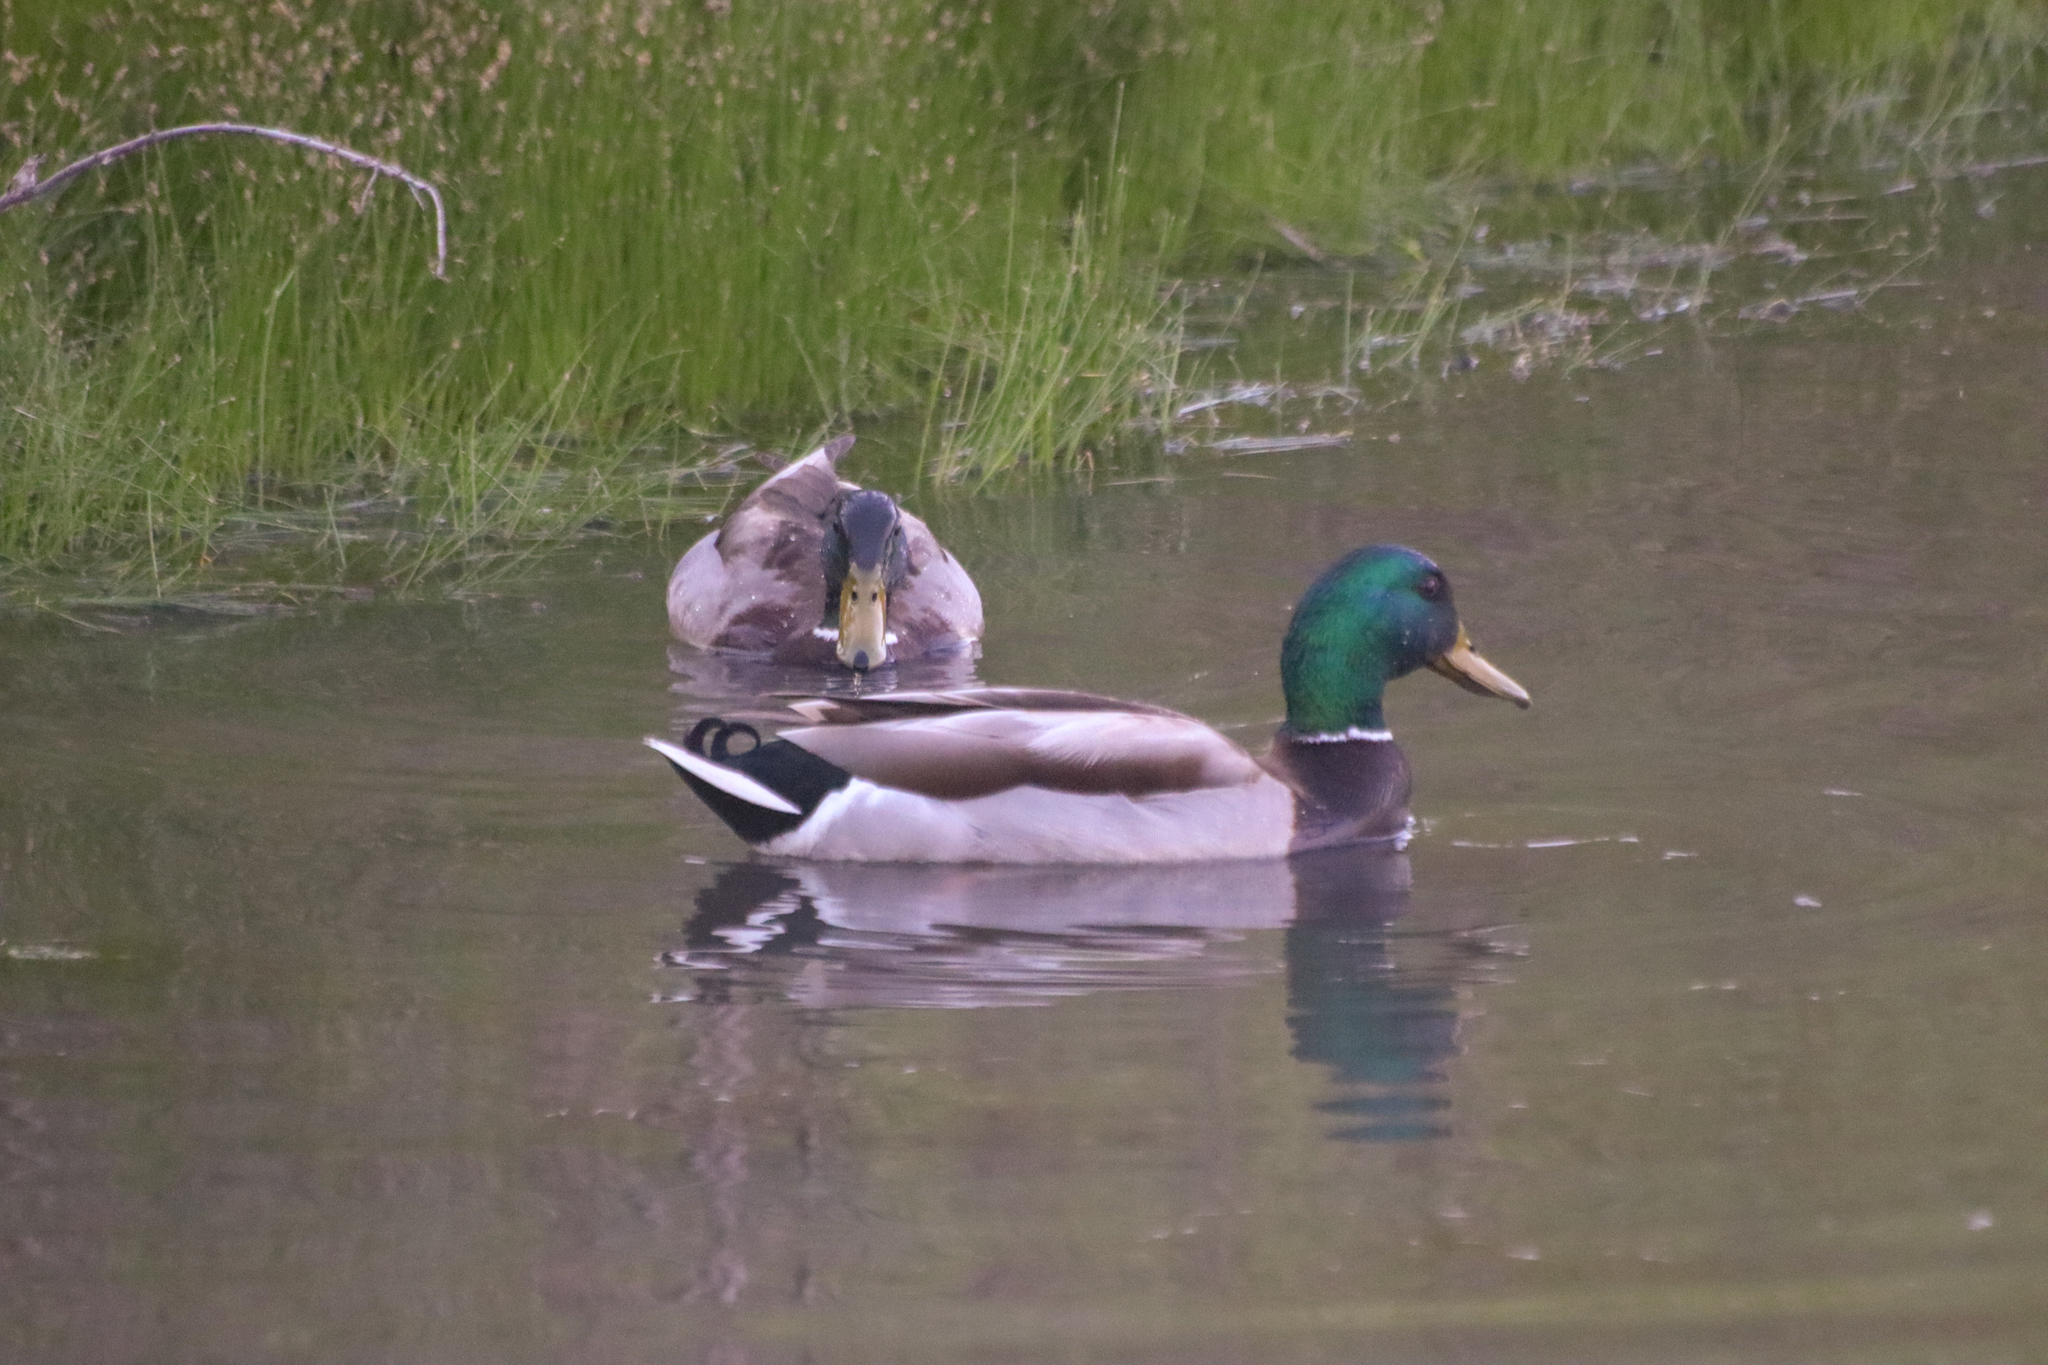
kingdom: Animalia
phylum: Chordata
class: Aves
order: Anseriformes
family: Anatidae
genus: Anas
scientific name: Anas platyrhynchos
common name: Mallard
